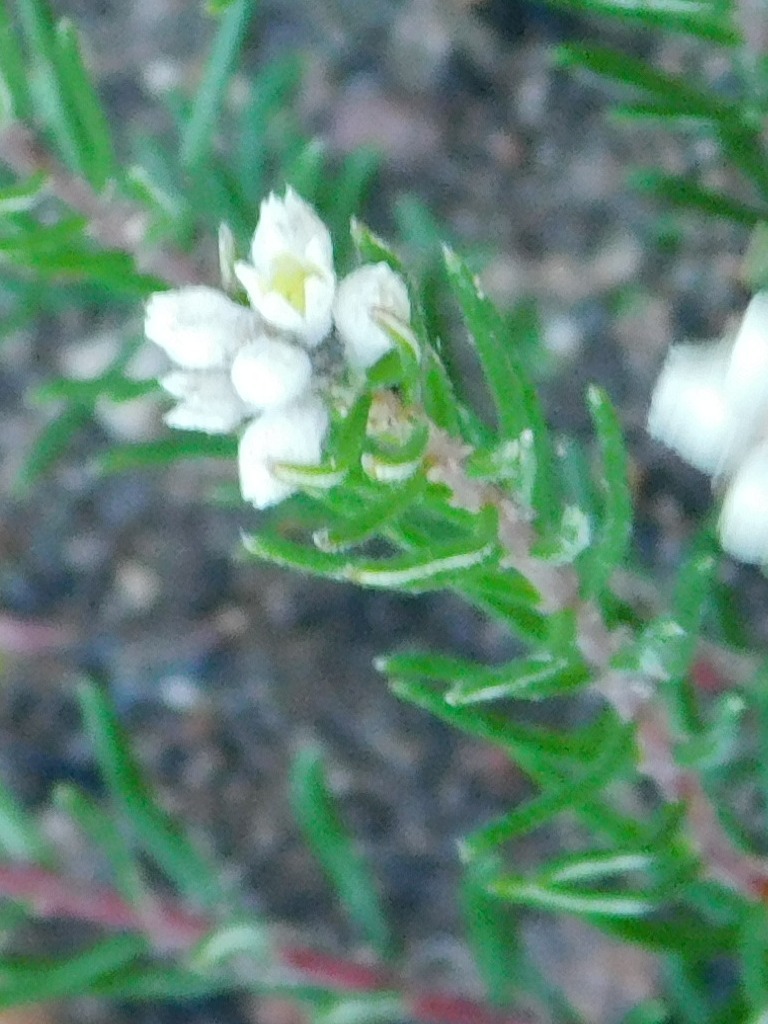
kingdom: Plantae
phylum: Tracheophyta
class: Magnoliopsida
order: Rosales
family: Rhamnaceae
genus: Phylica
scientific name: Phylica imberbis
